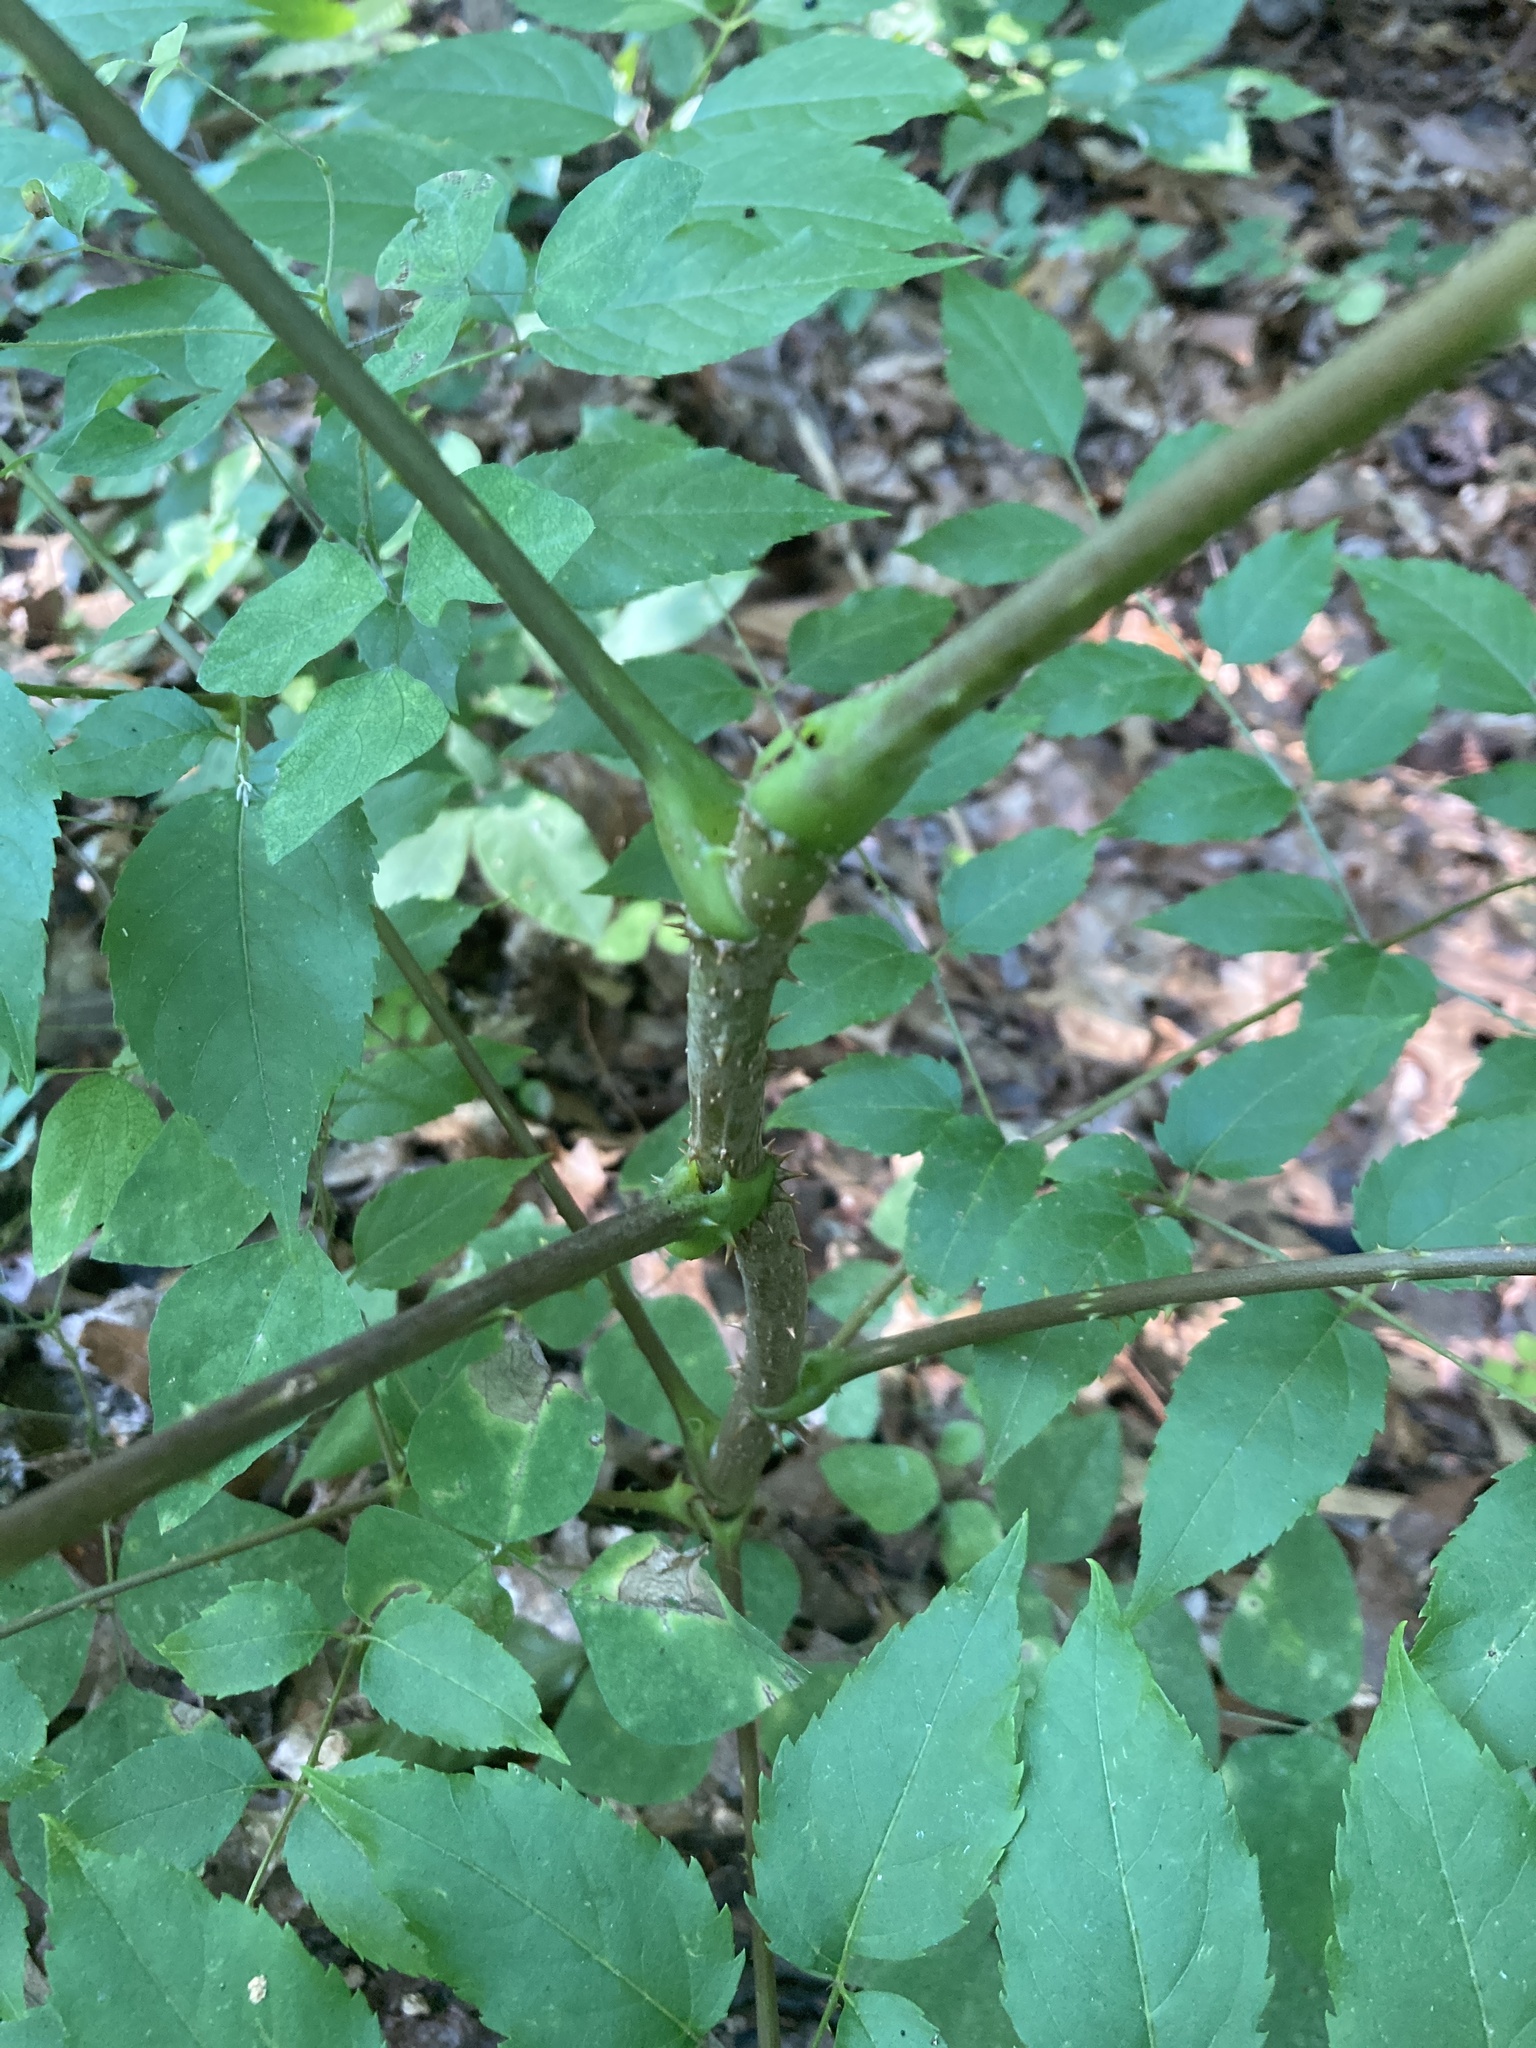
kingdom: Plantae
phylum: Tracheophyta
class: Magnoliopsida
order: Apiales
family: Araliaceae
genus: Aralia
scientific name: Aralia spinosa
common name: Hercules'-club
